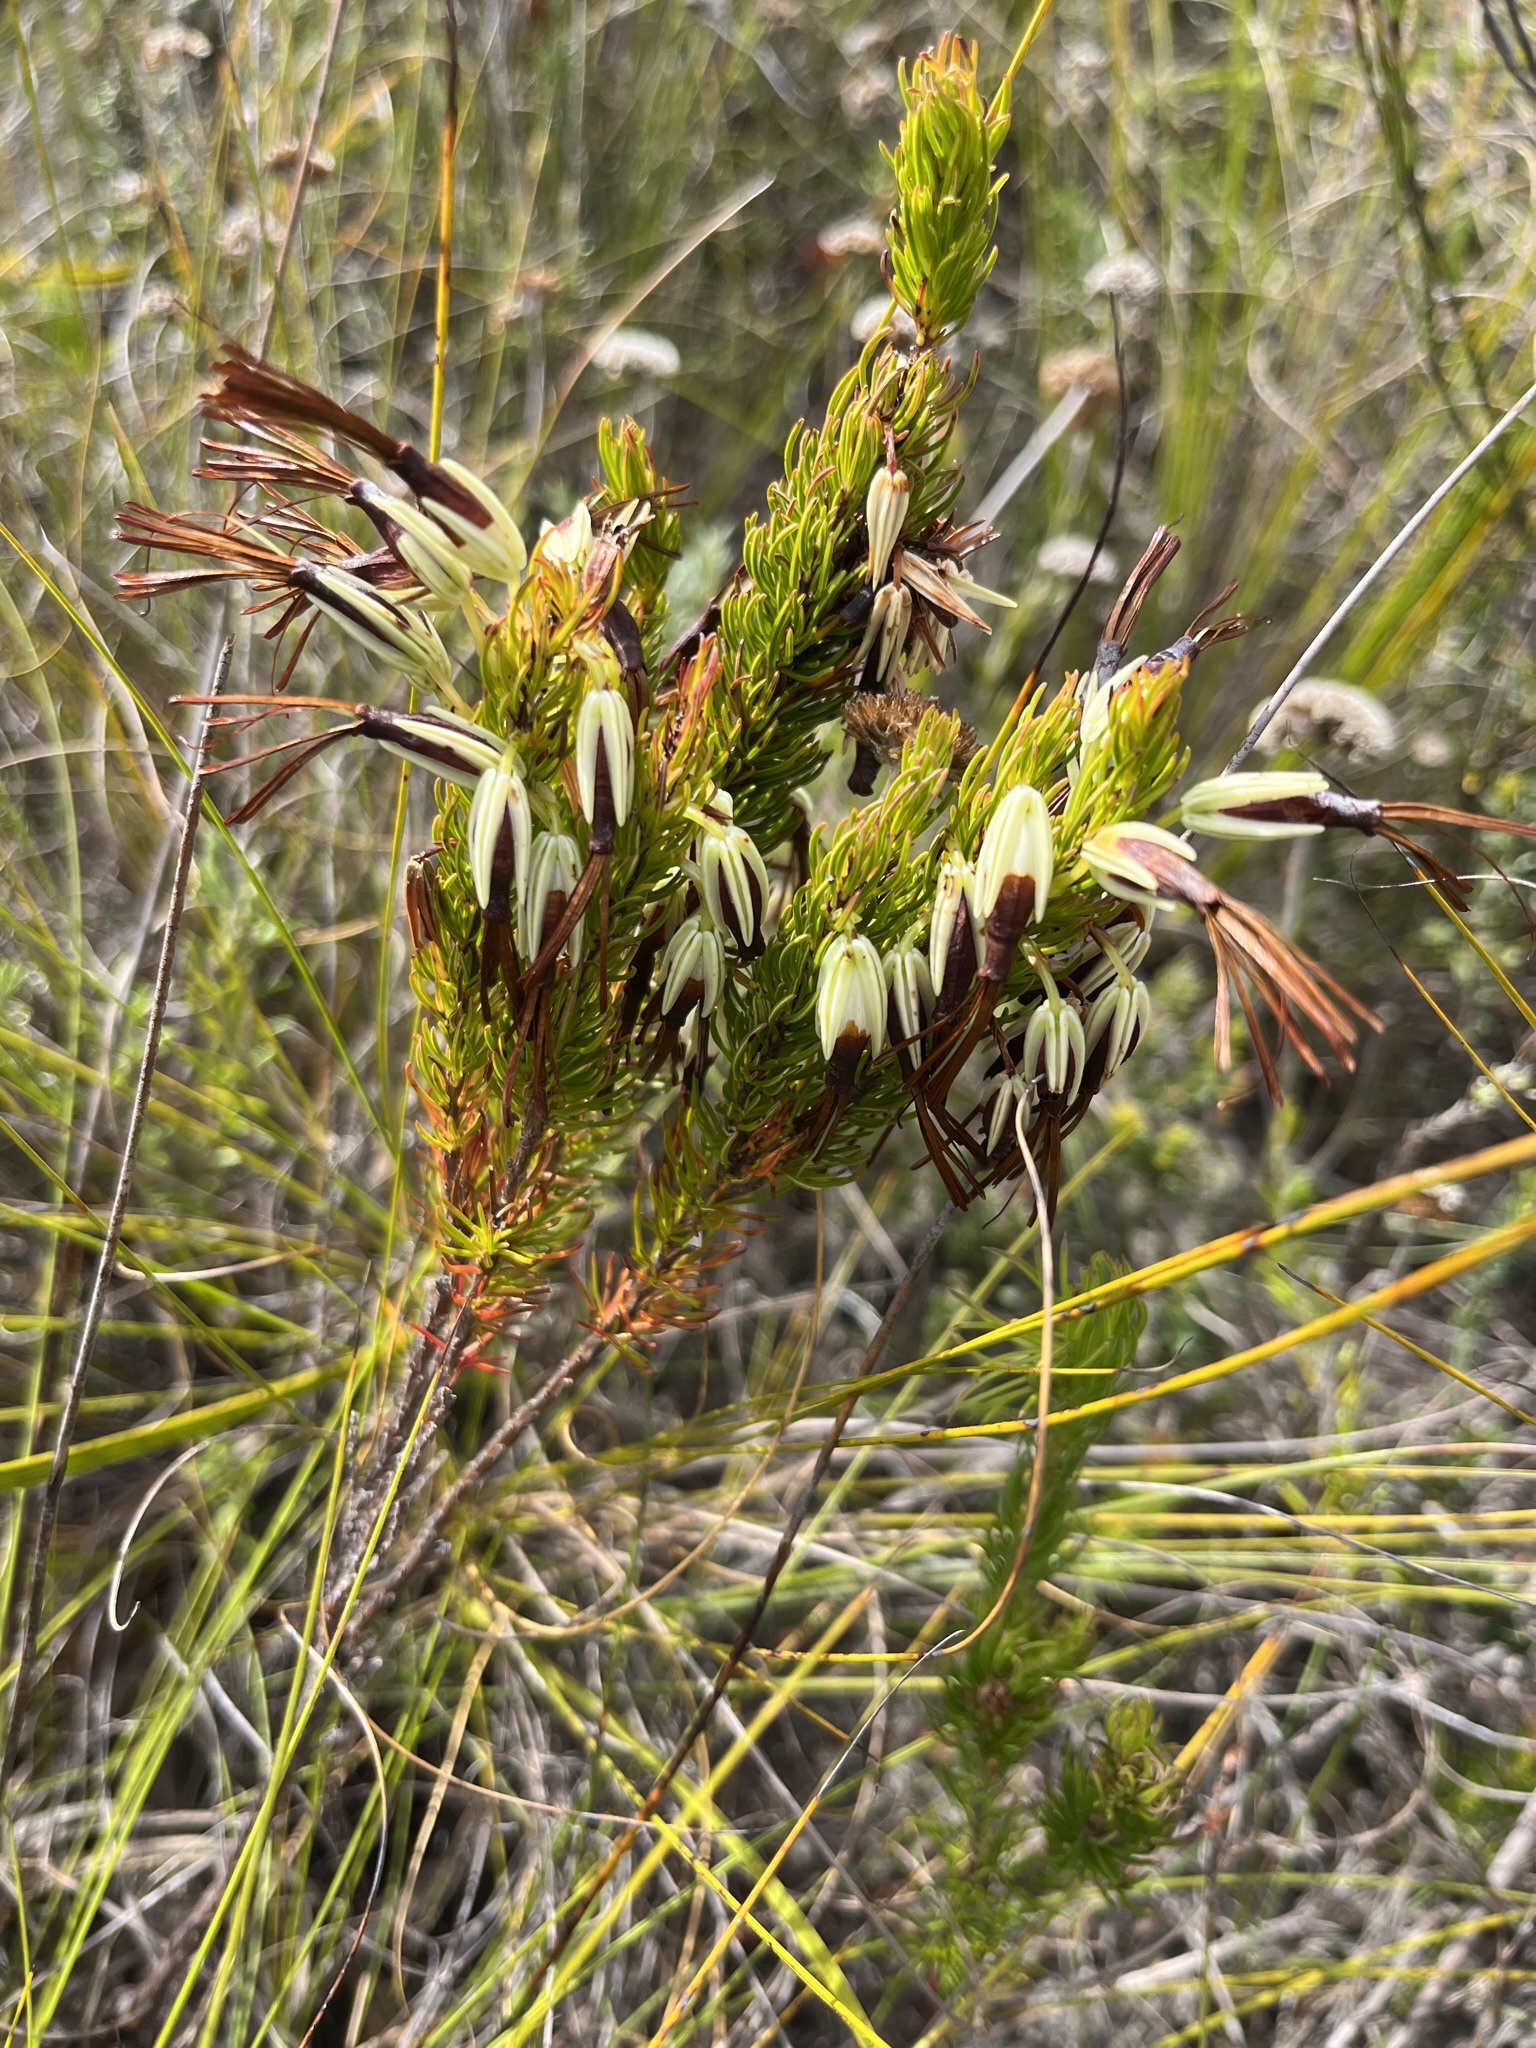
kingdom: Plantae
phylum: Tracheophyta
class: Magnoliopsida
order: Ericales
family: Ericaceae
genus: Erica
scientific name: Erica plukenetii
